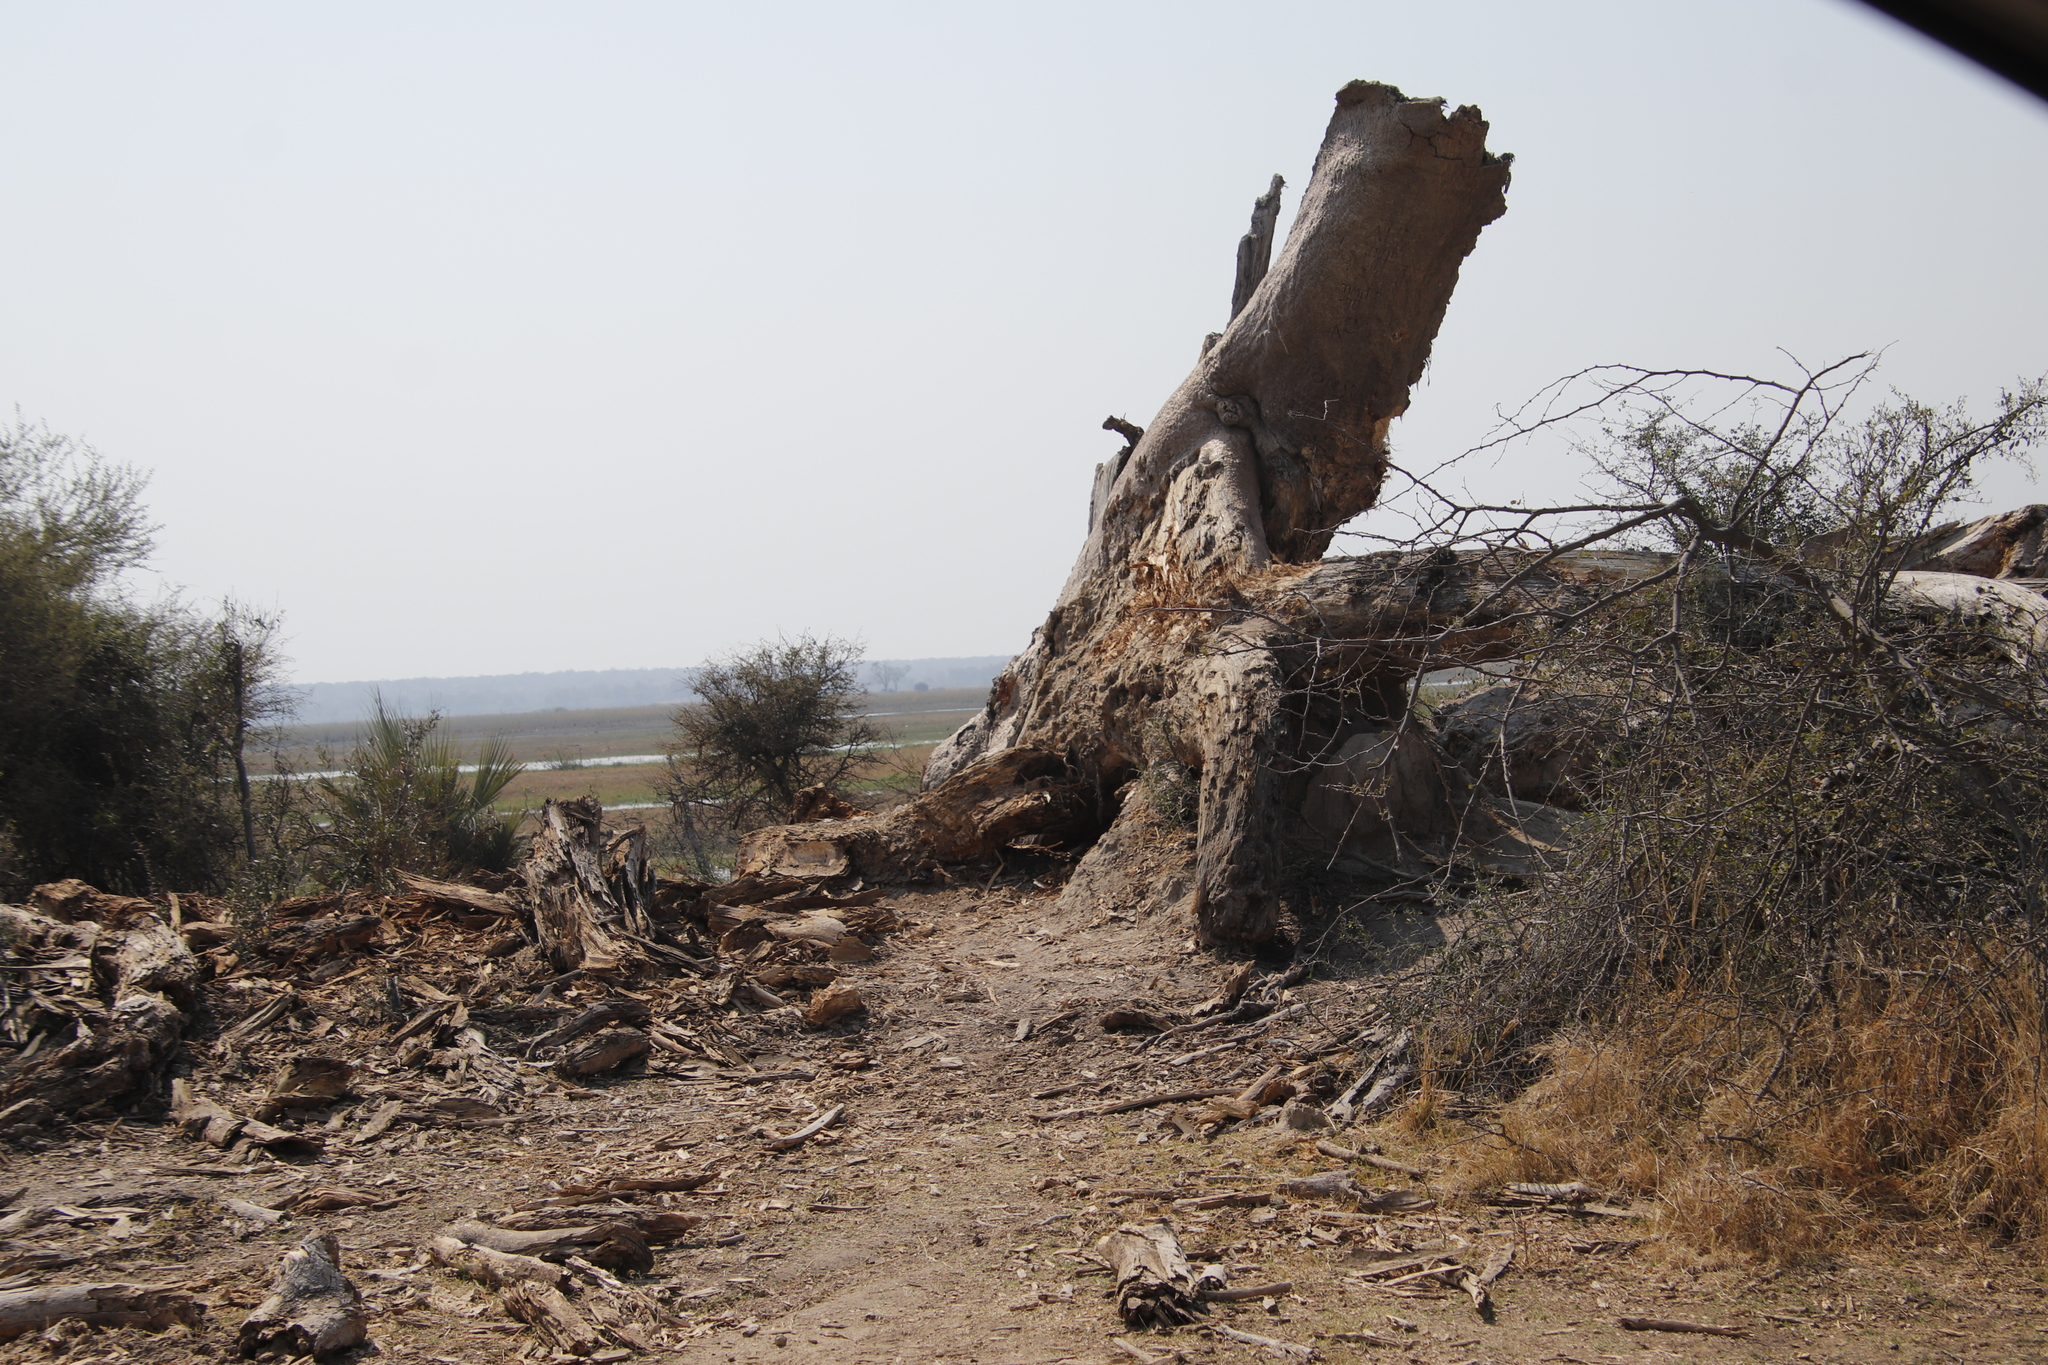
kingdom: Plantae
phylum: Tracheophyta
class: Magnoliopsida
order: Malvales
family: Malvaceae
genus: Adansonia
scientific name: Adansonia digitata
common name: Dead-rat-tree
